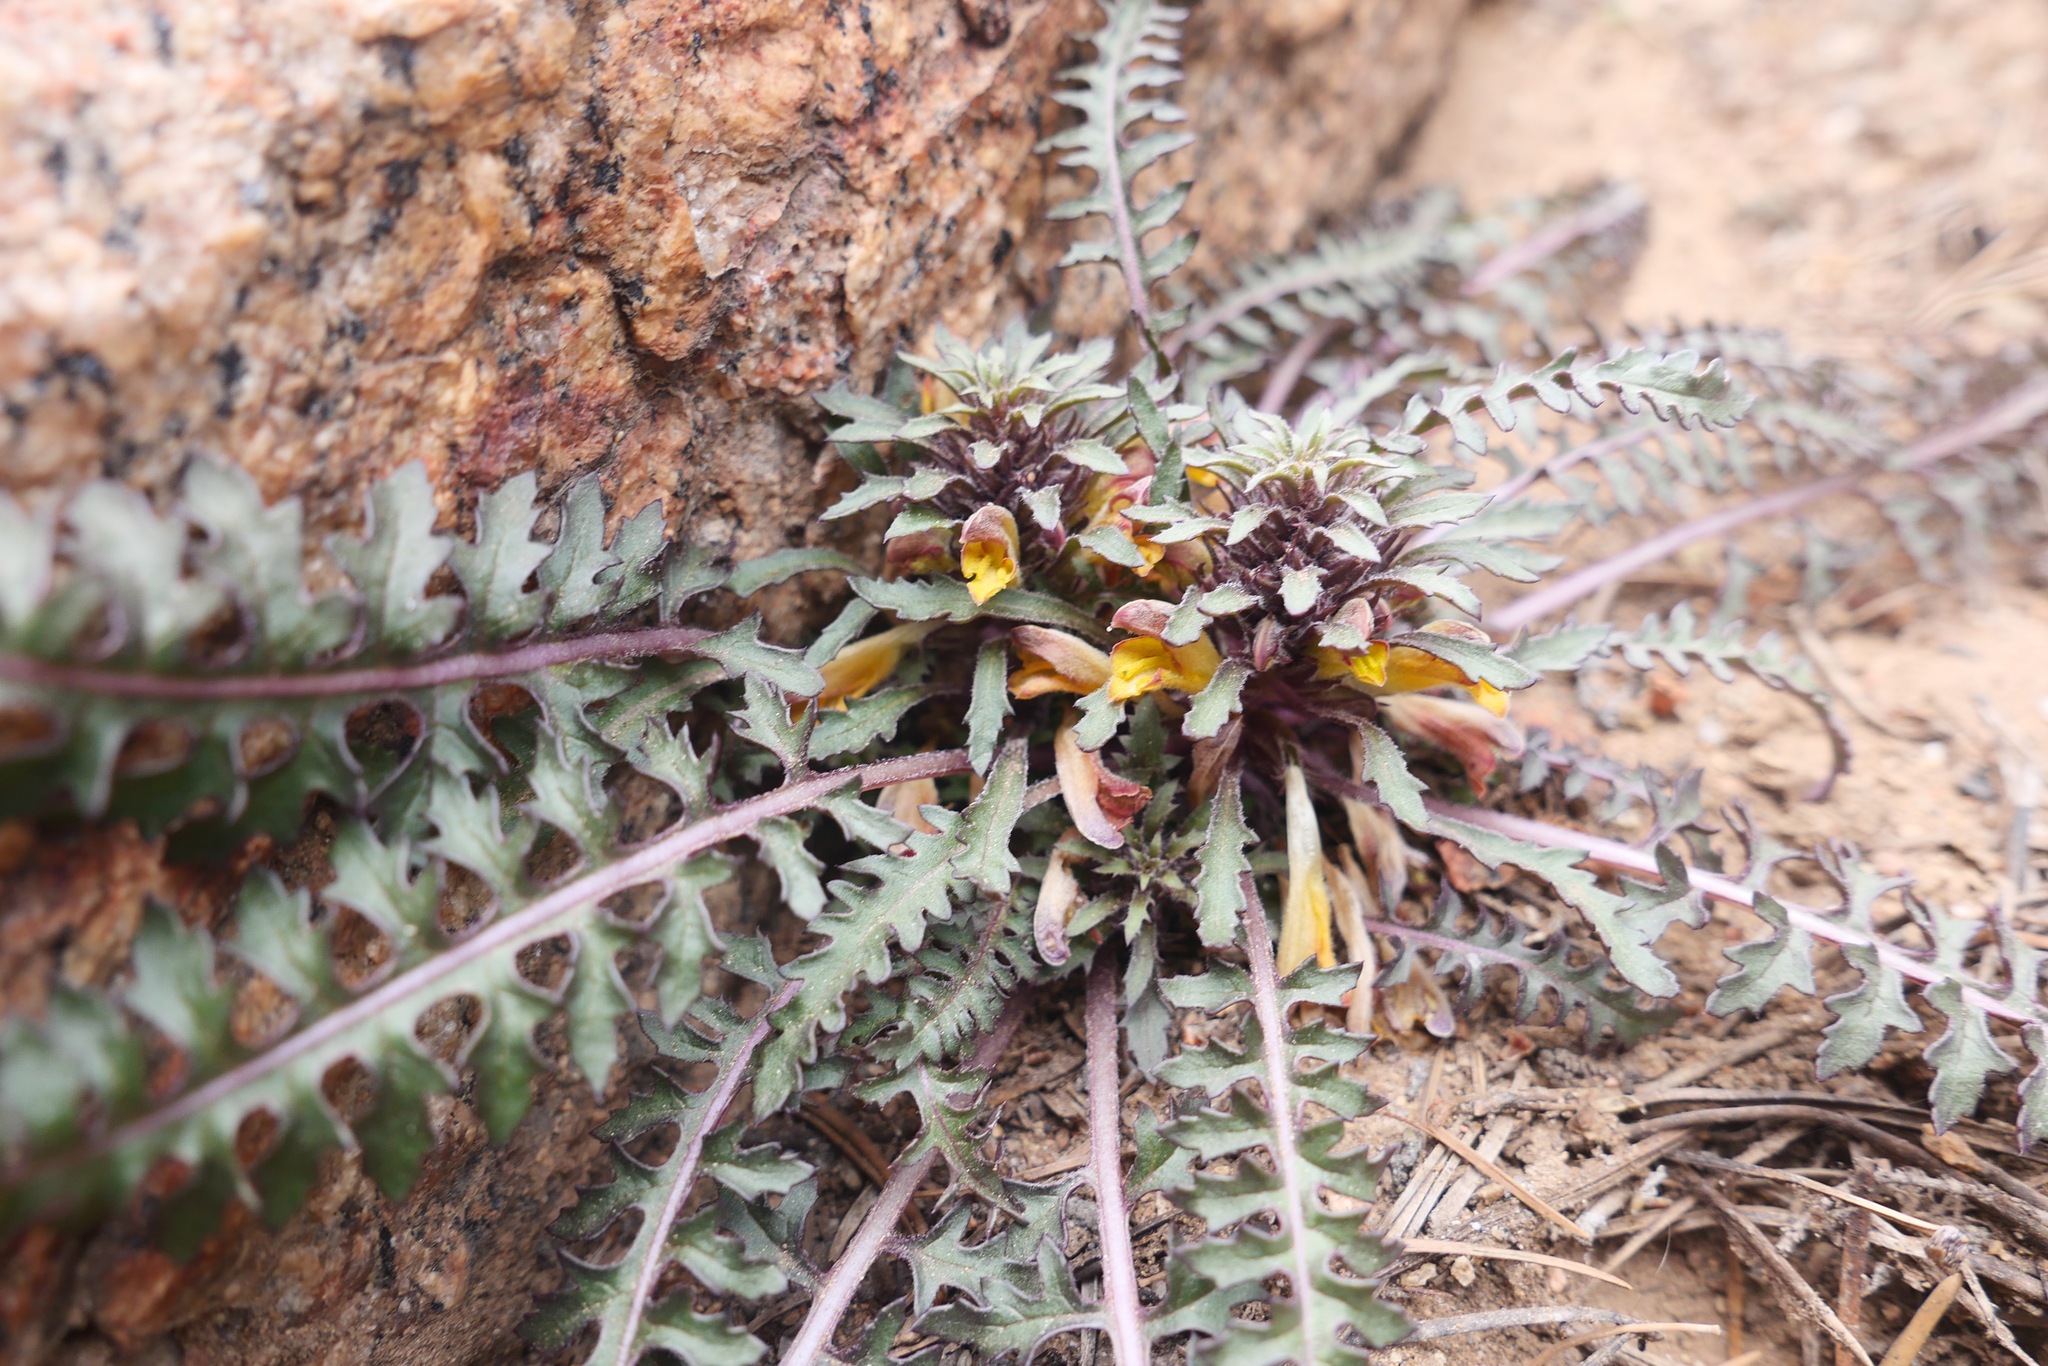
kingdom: Plantae
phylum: Tracheophyta
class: Magnoliopsida
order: Lamiales
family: Orobanchaceae
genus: Pedicularis
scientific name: Pedicularis semibarbata
